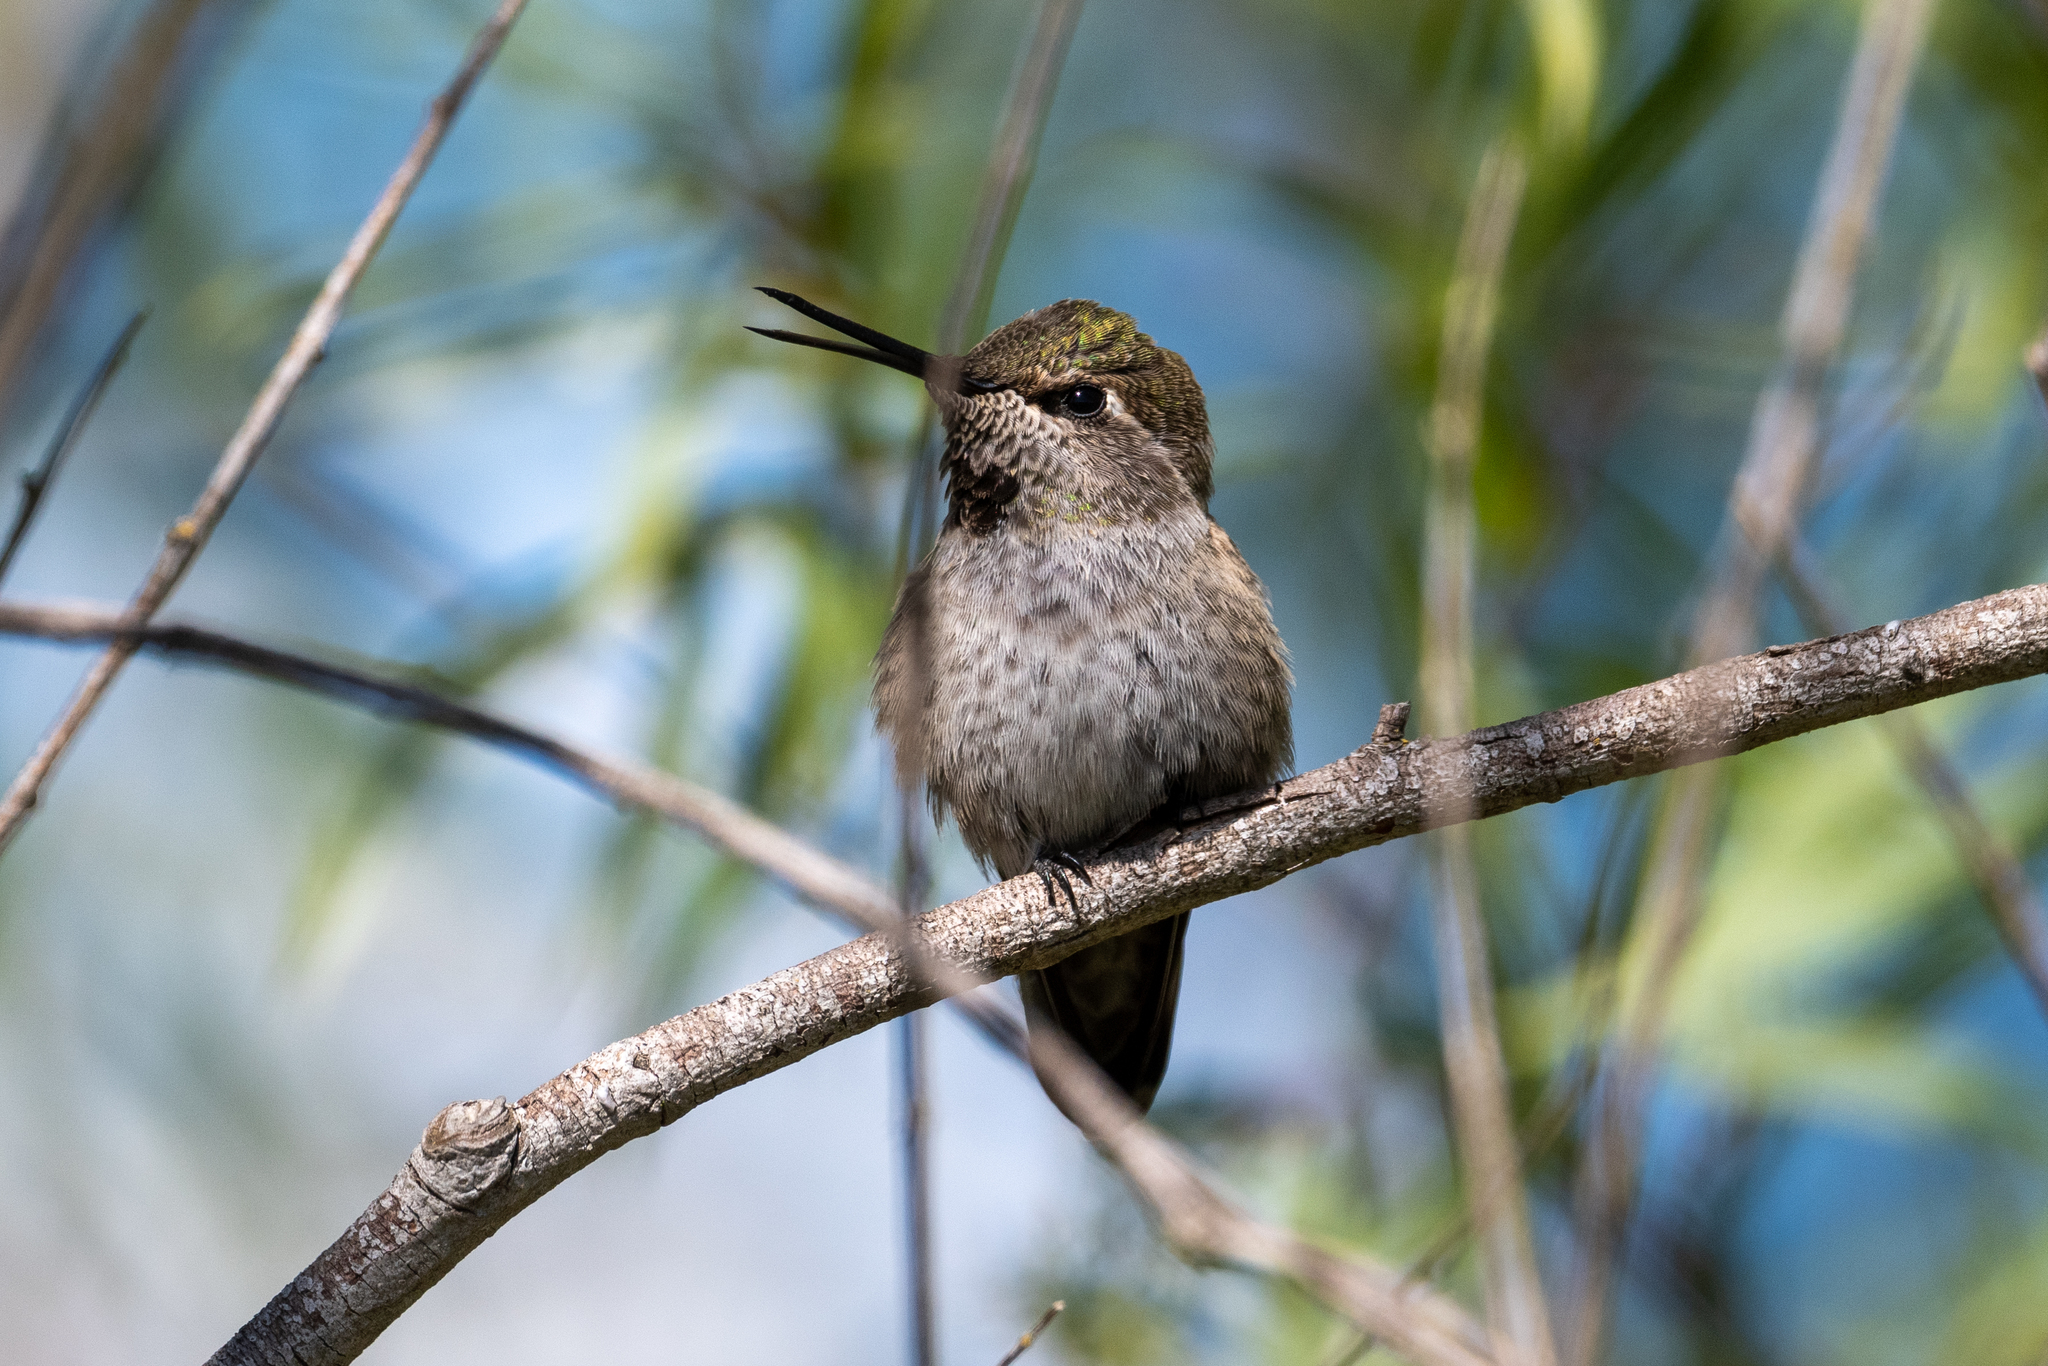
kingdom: Animalia
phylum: Chordata
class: Aves
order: Apodiformes
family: Trochilidae
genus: Calypte
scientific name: Calypte anna
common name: Anna's hummingbird
